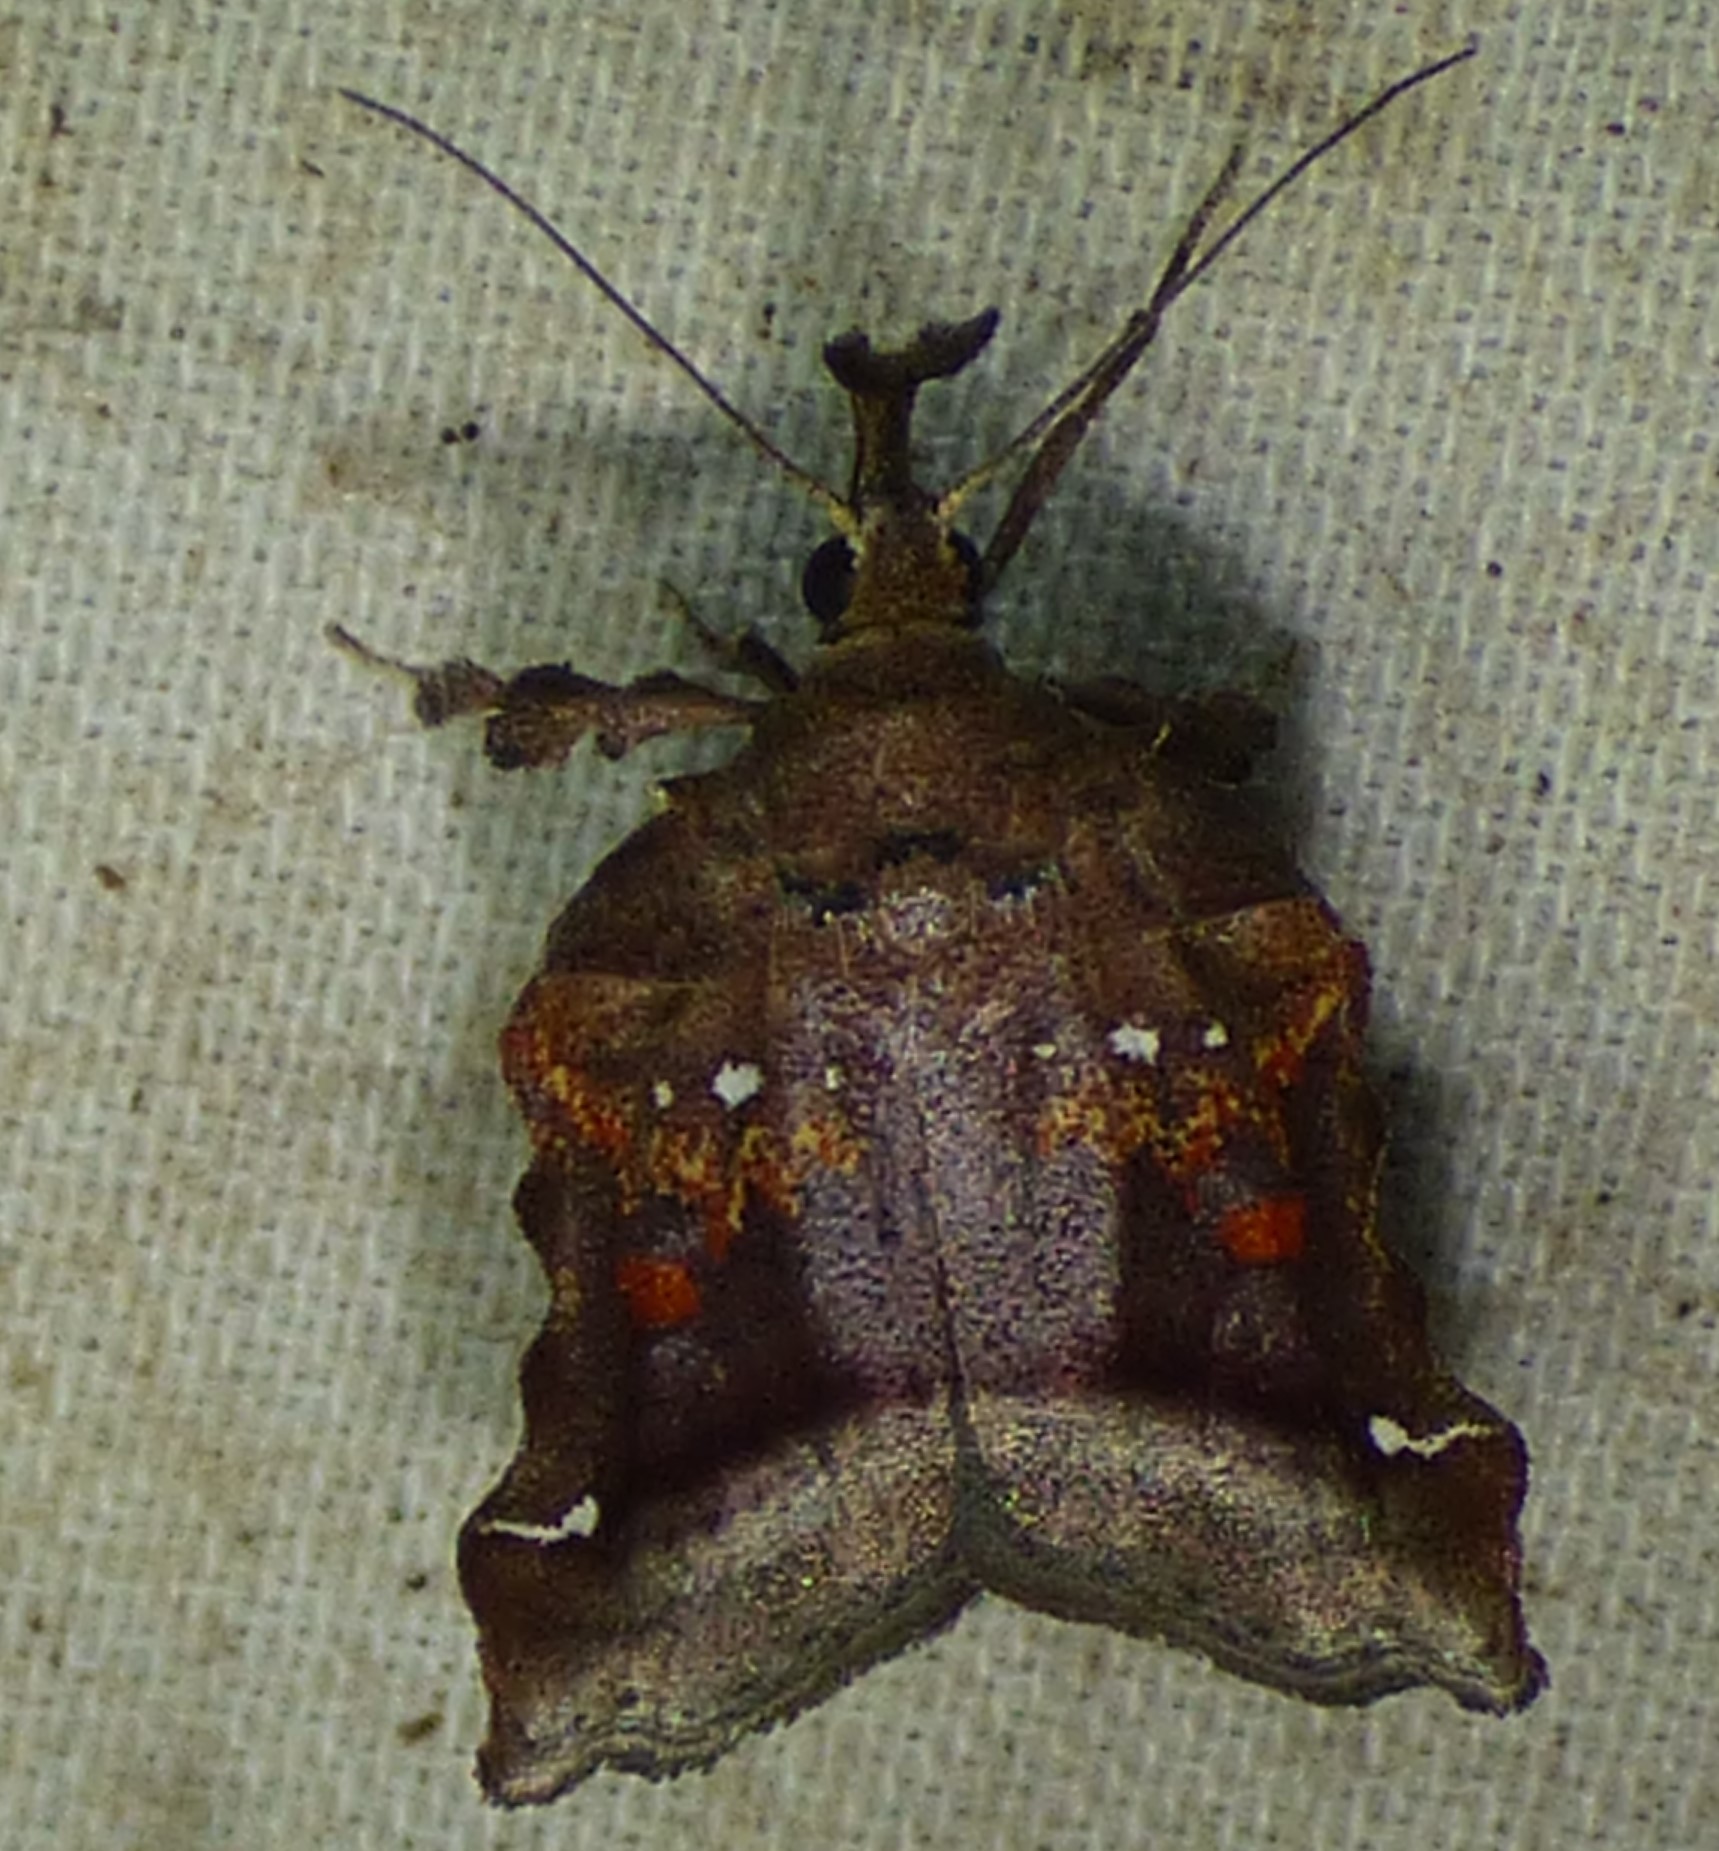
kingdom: Animalia
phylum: Arthropoda
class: Insecta
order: Lepidoptera
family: Pyralidae
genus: Clydonopteron
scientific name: Clydonopteron sacculana
